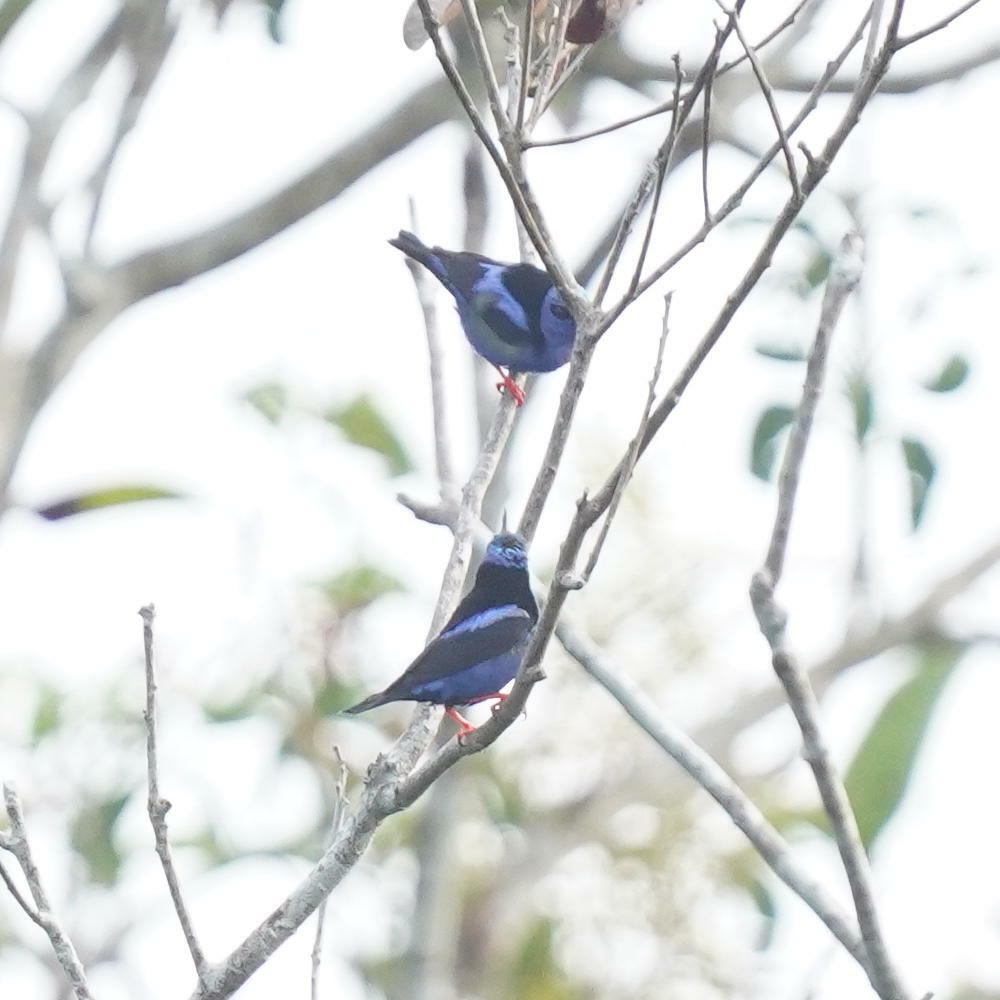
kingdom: Animalia
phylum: Chordata
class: Aves
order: Passeriformes
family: Thraupidae
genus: Cyanerpes
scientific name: Cyanerpes cyaneus
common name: Red-legged honeycreeper
